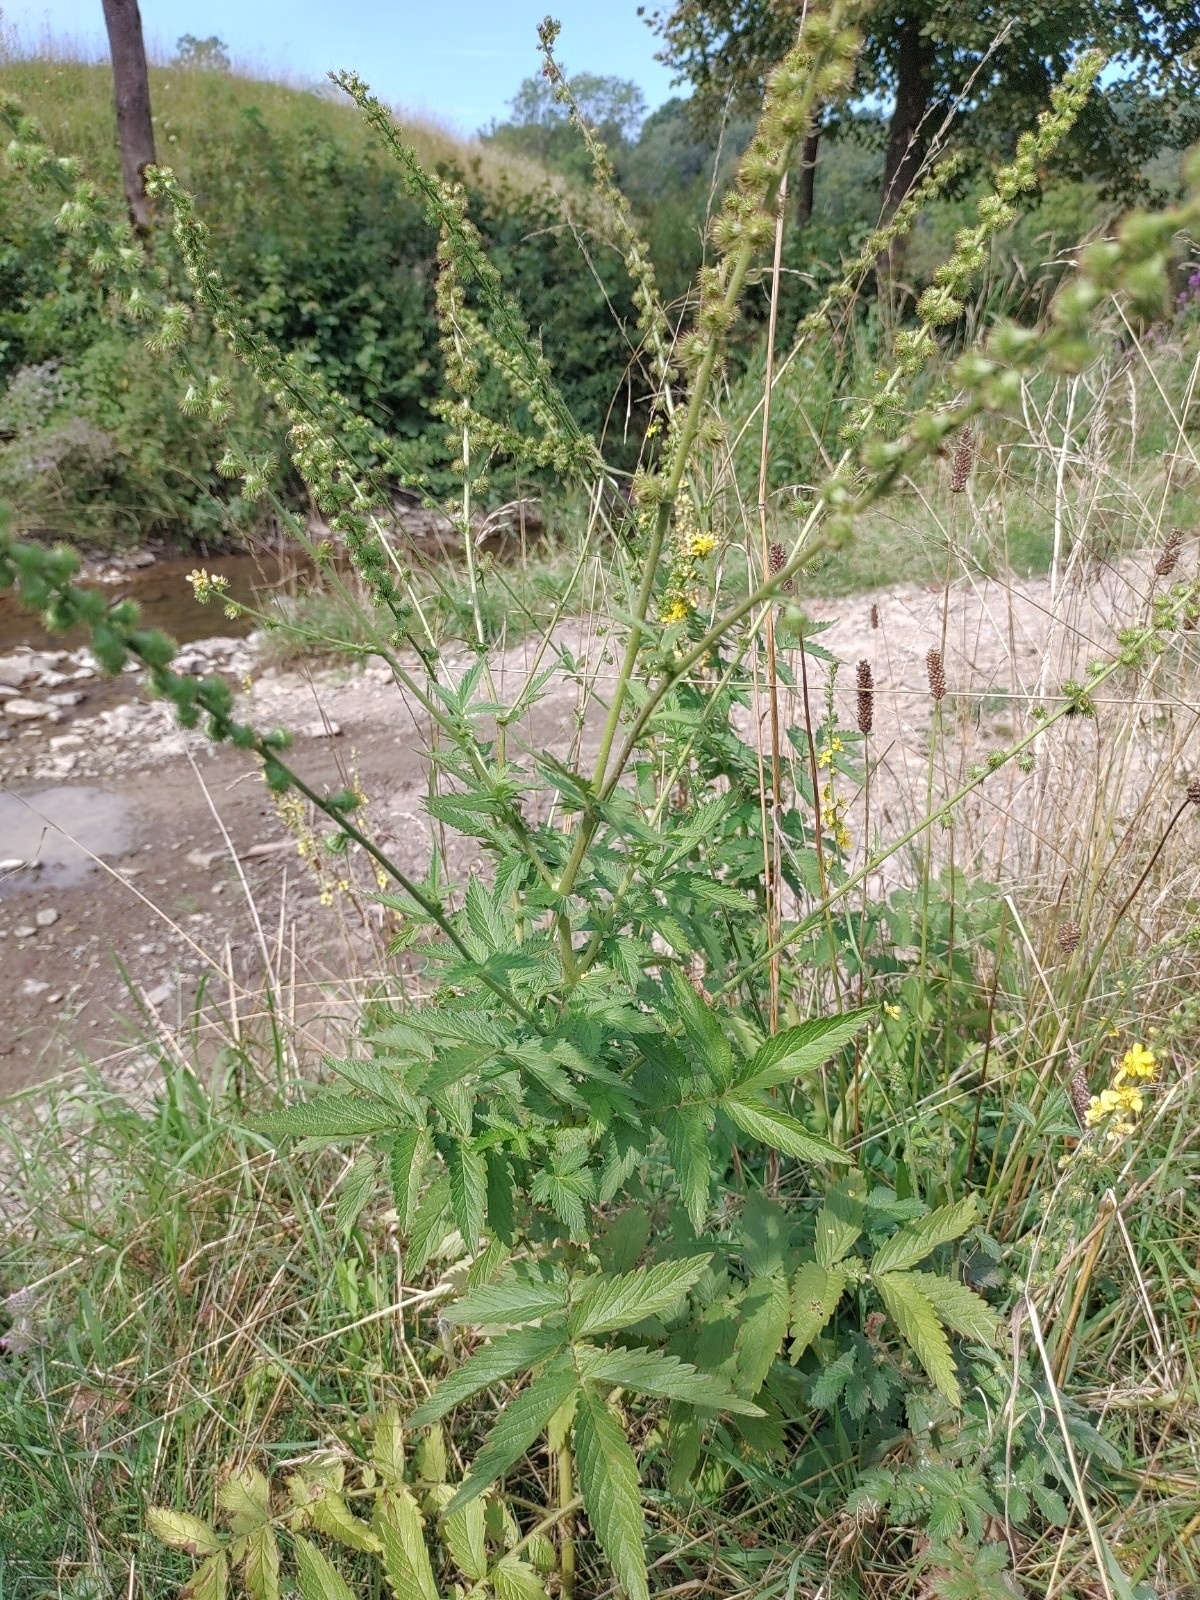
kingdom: Plantae
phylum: Tracheophyta
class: Magnoliopsida
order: Rosales
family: Rosaceae
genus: Agrimonia
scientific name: Agrimonia eupatoria
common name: Agrimony
